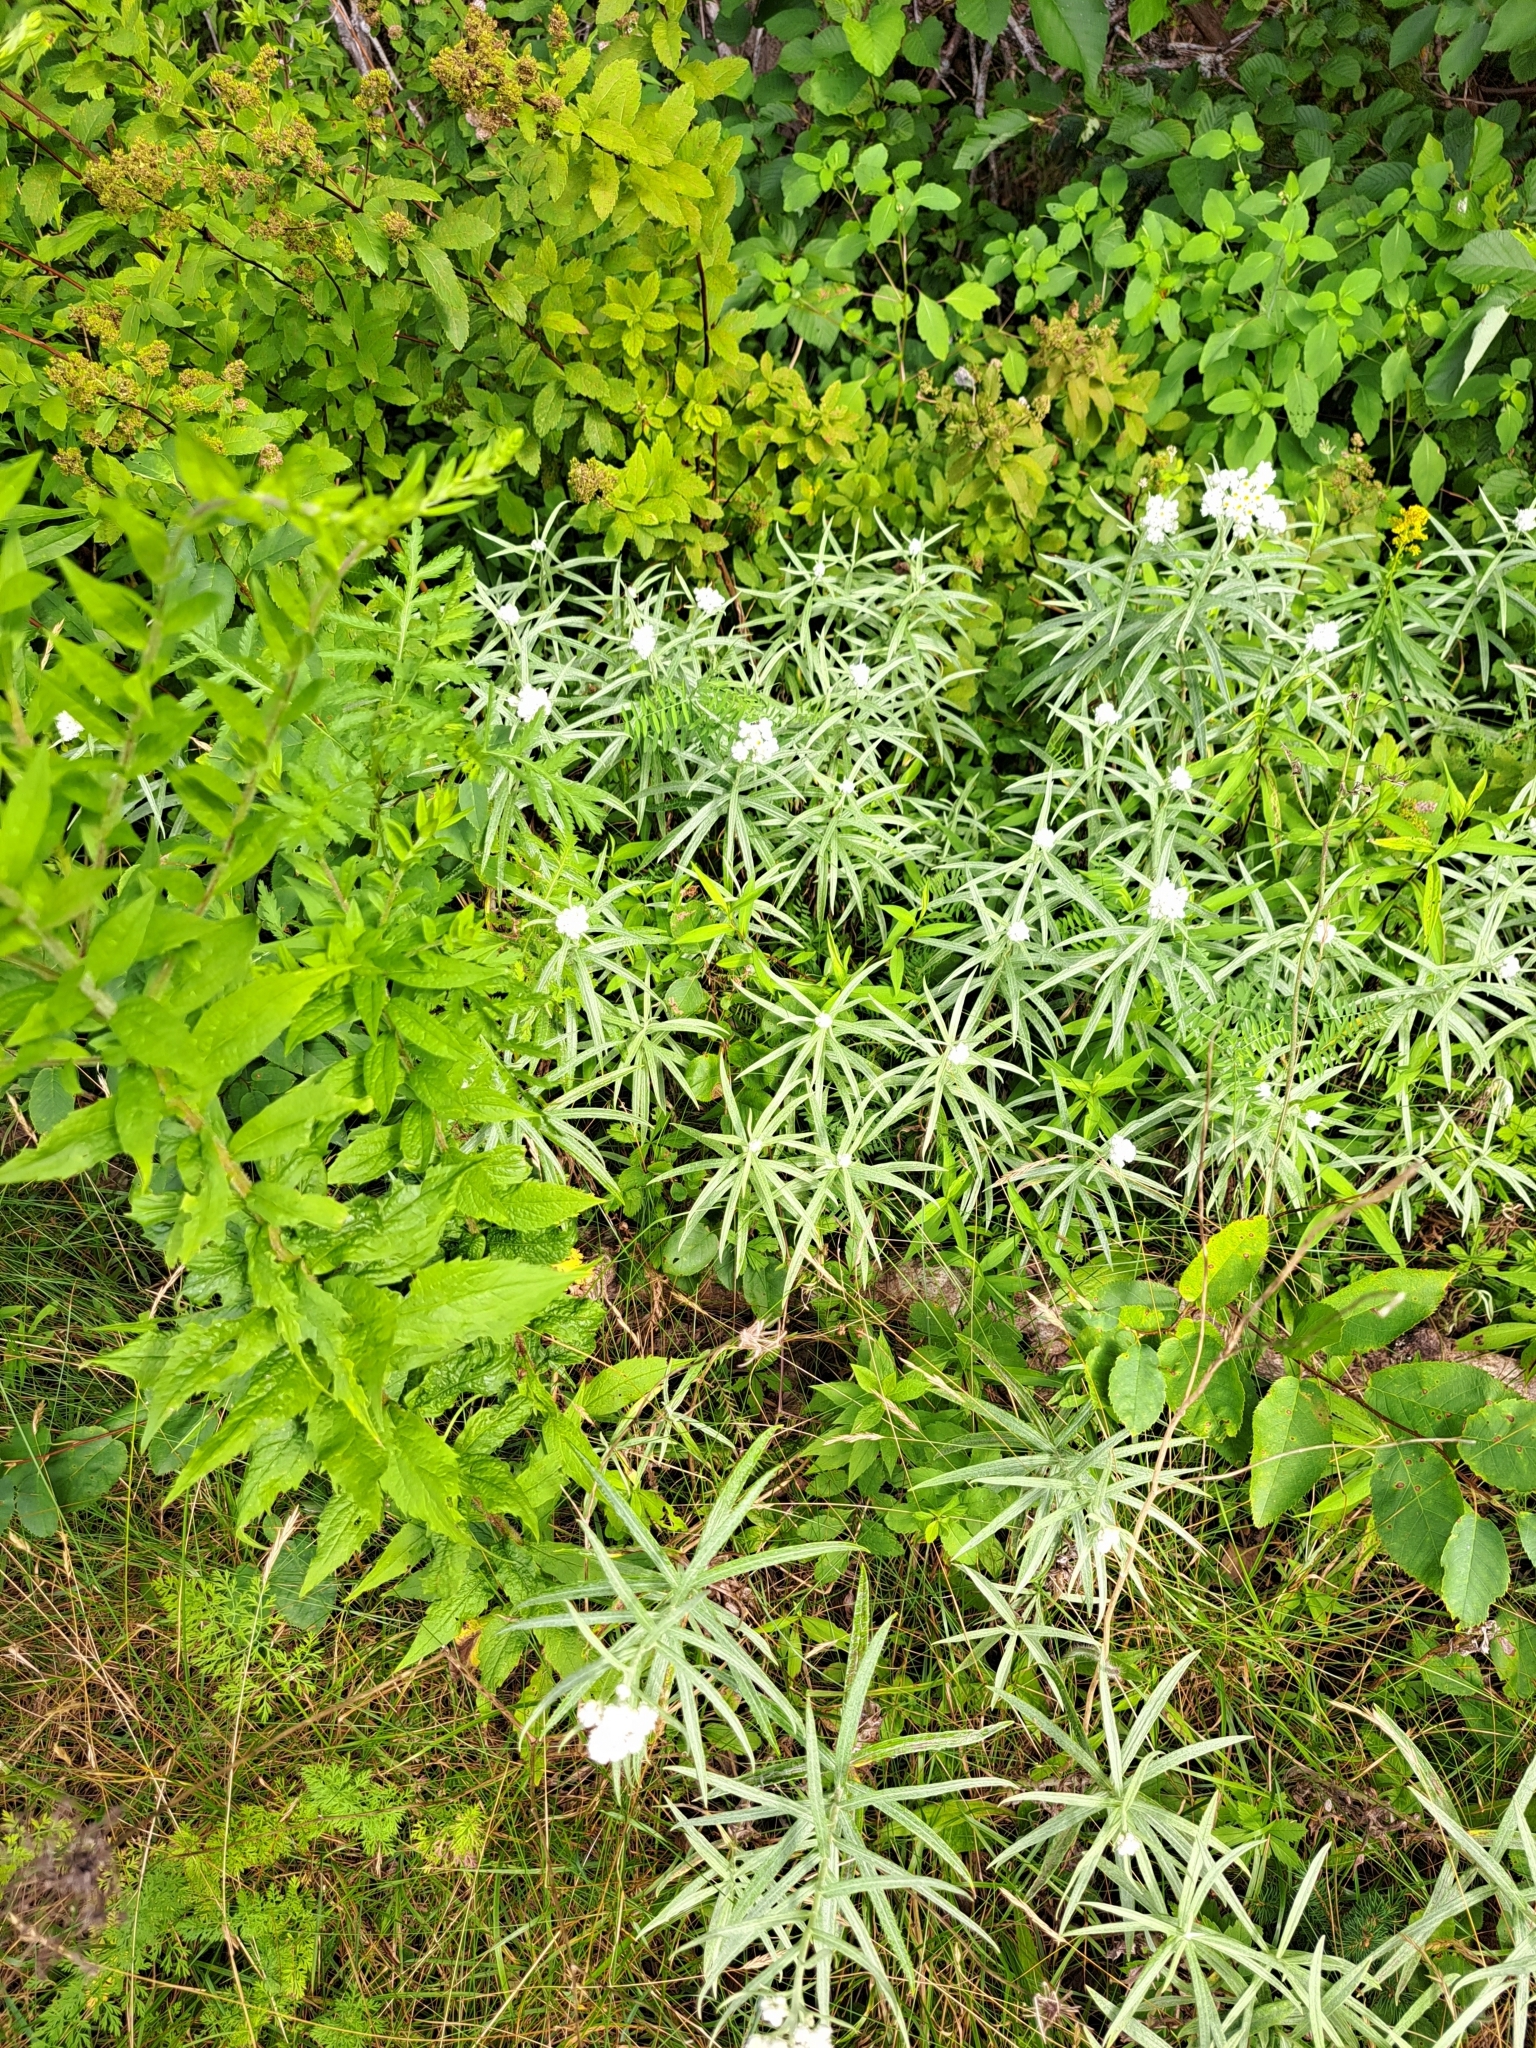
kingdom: Plantae
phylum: Tracheophyta
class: Magnoliopsida
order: Asterales
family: Asteraceae
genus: Anaphalis
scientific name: Anaphalis margaritacea
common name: Pearly everlasting
